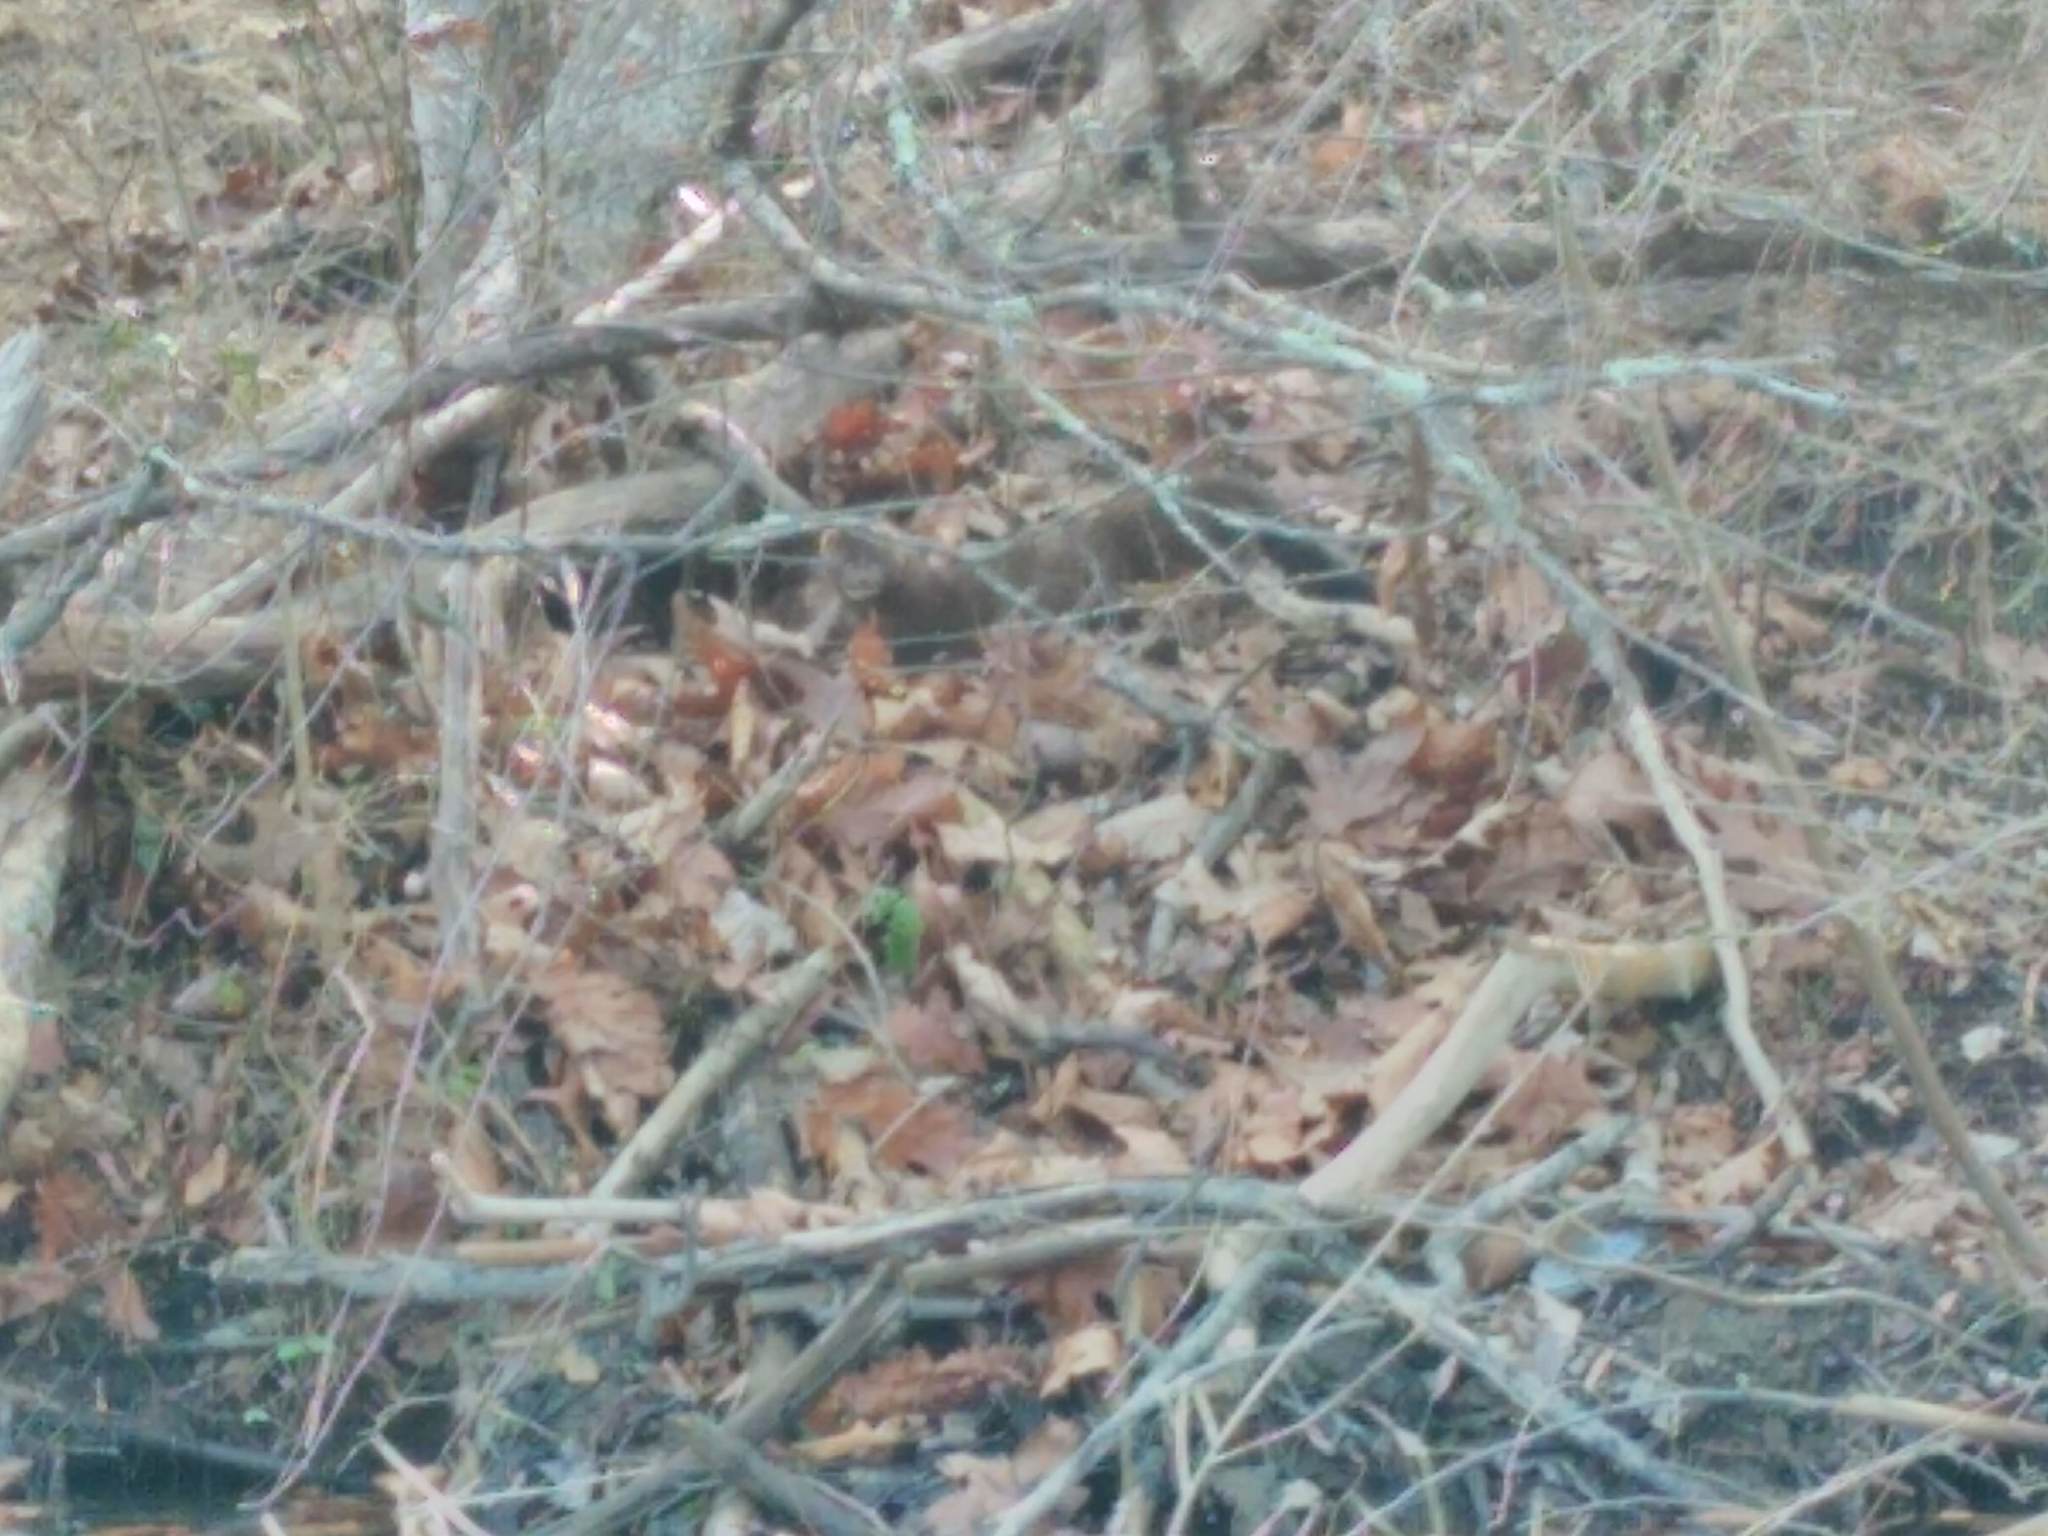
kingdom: Animalia
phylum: Chordata
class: Mammalia
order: Carnivora
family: Mustelidae
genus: Mustela
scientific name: Mustela
